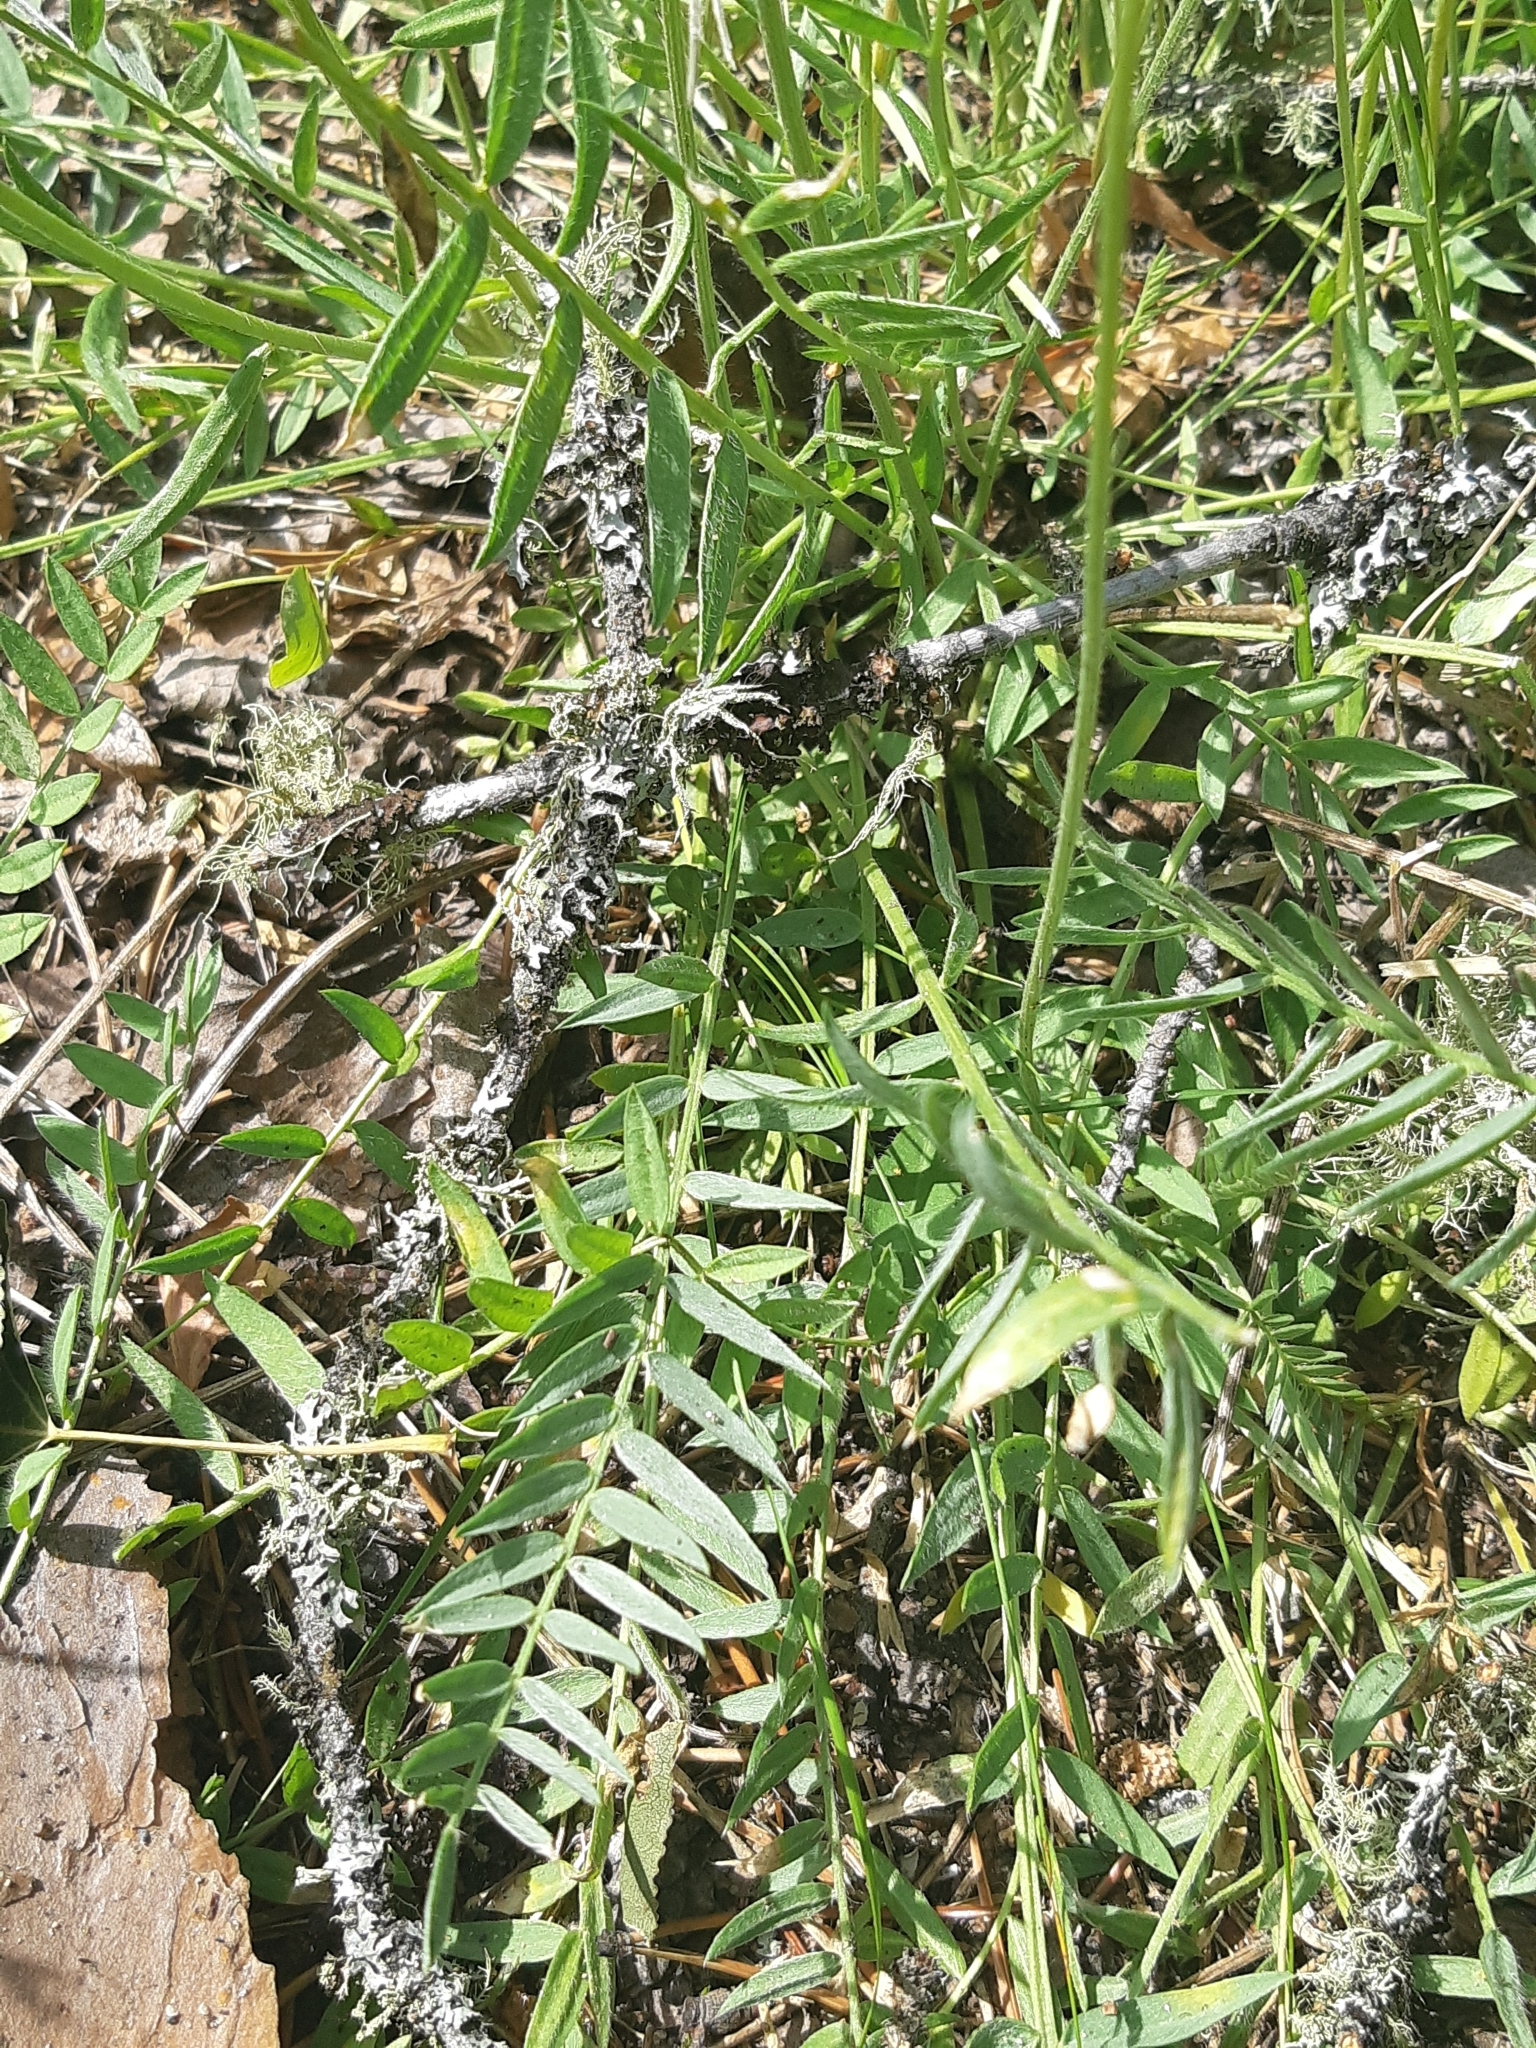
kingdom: Plantae
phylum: Tracheophyta
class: Magnoliopsida
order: Fabales
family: Fabaceae
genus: Oxytropis
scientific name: Oxytropis campestris
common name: Field locoweed
